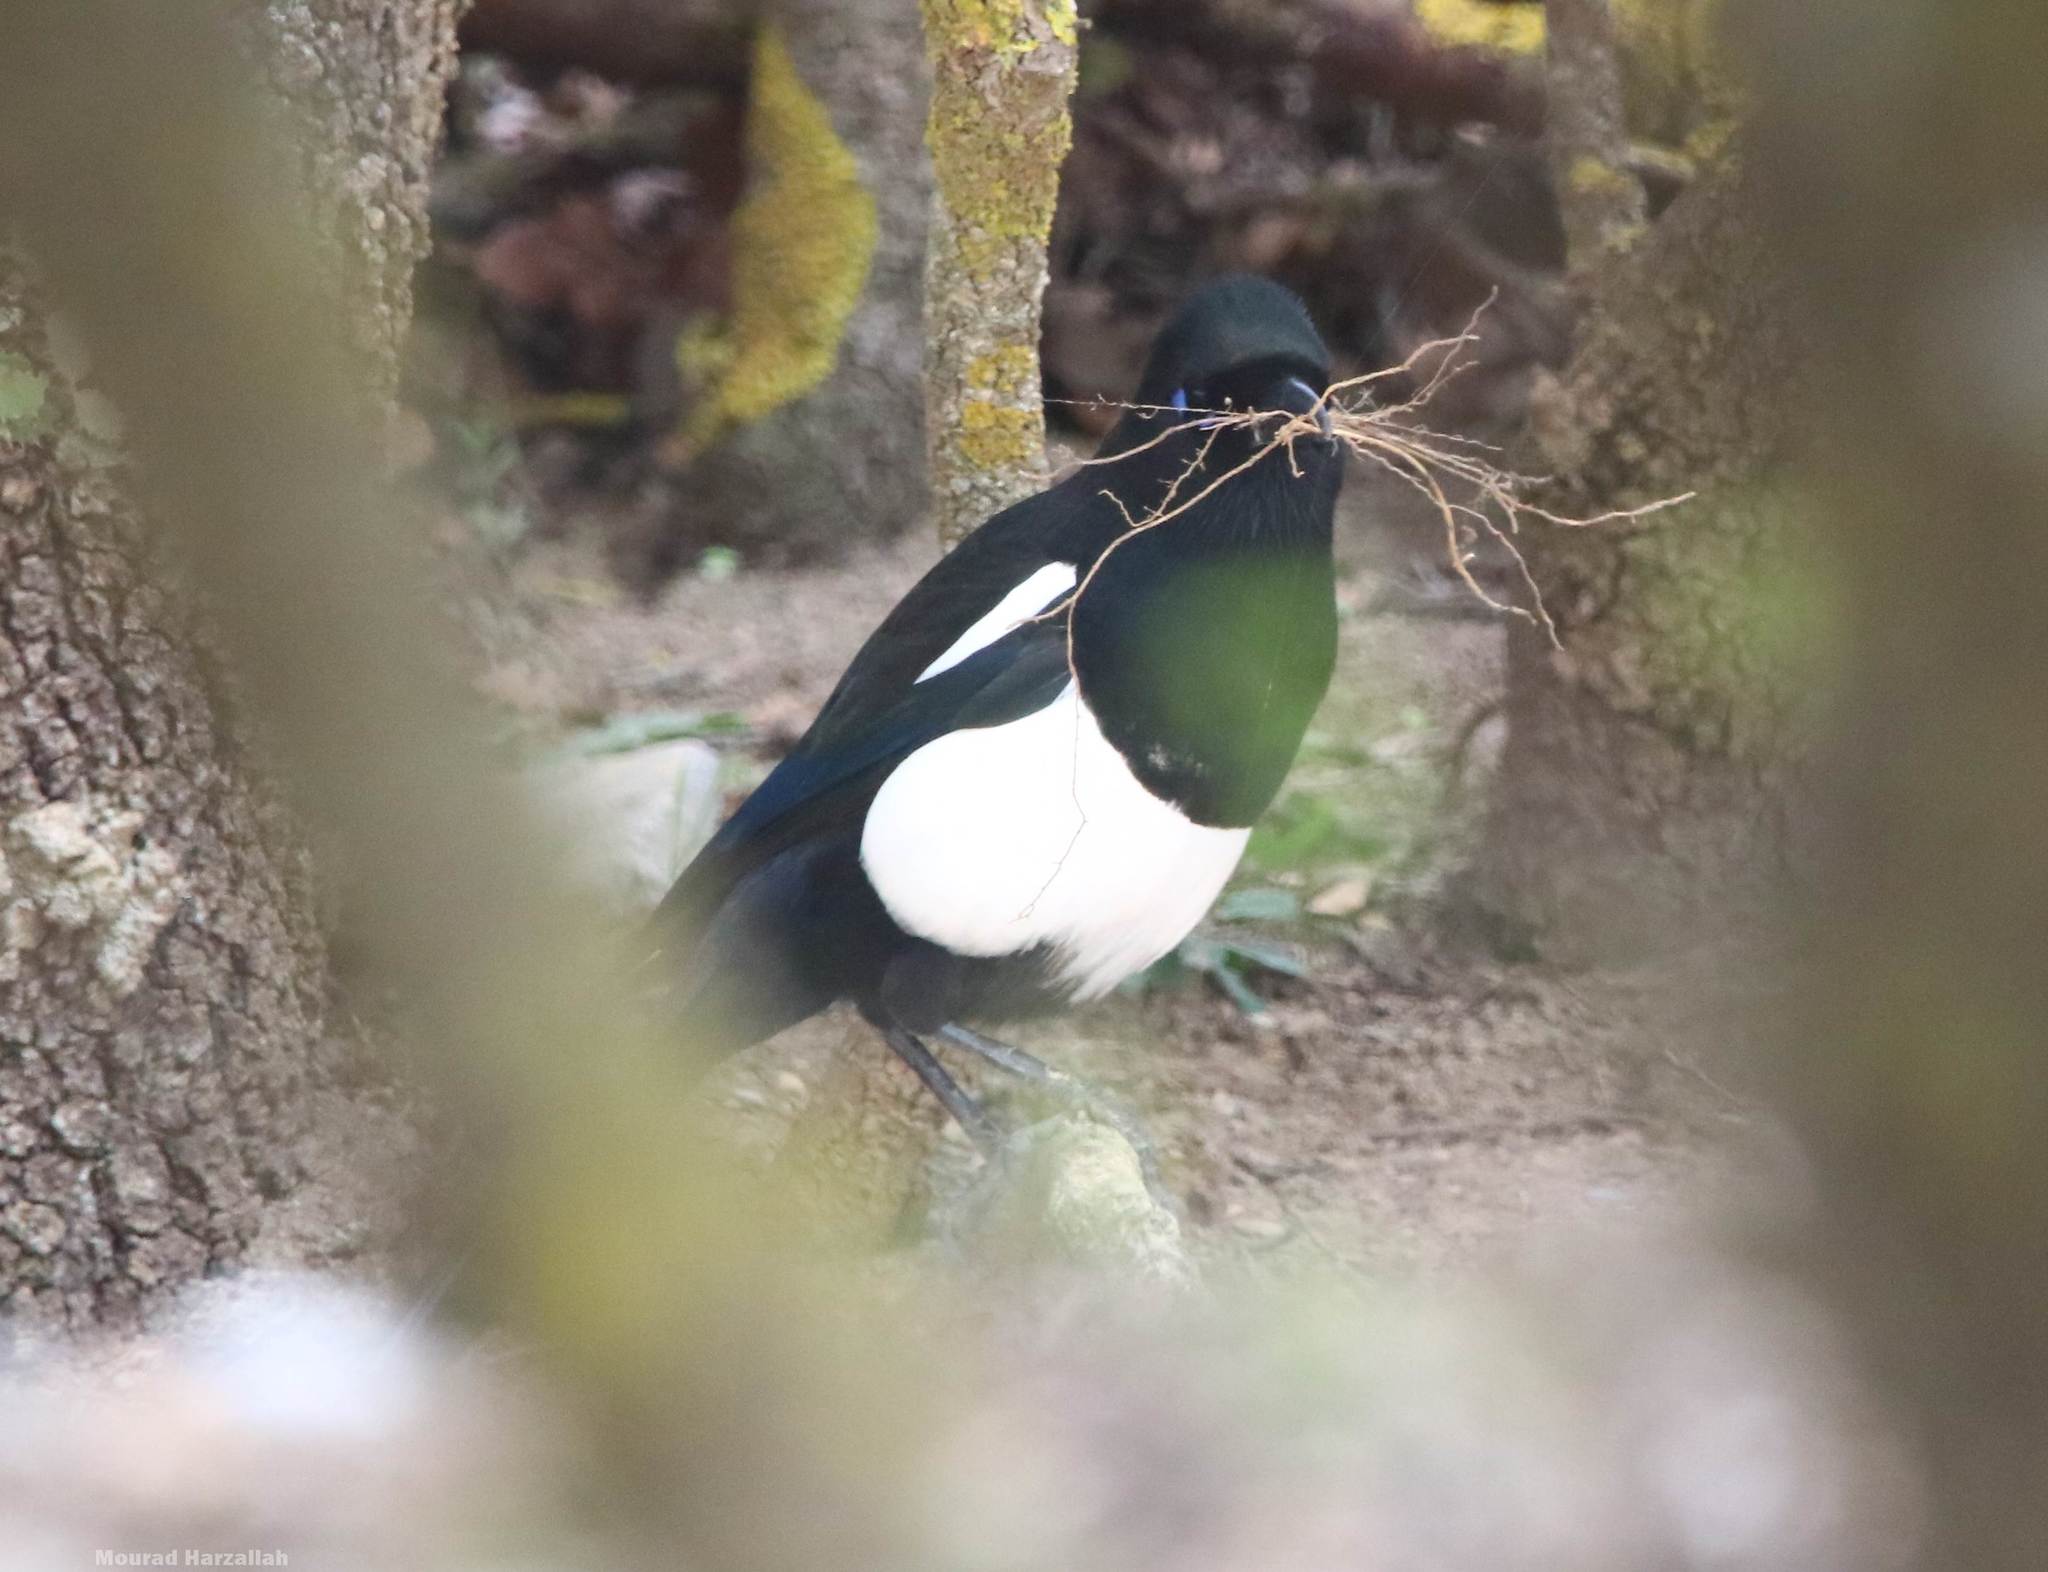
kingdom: Animalia
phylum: Chordata
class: Aves
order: Passeriformes
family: Corvidae
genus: Pica
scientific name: Pica mauritanica
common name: Maghreb magpie
